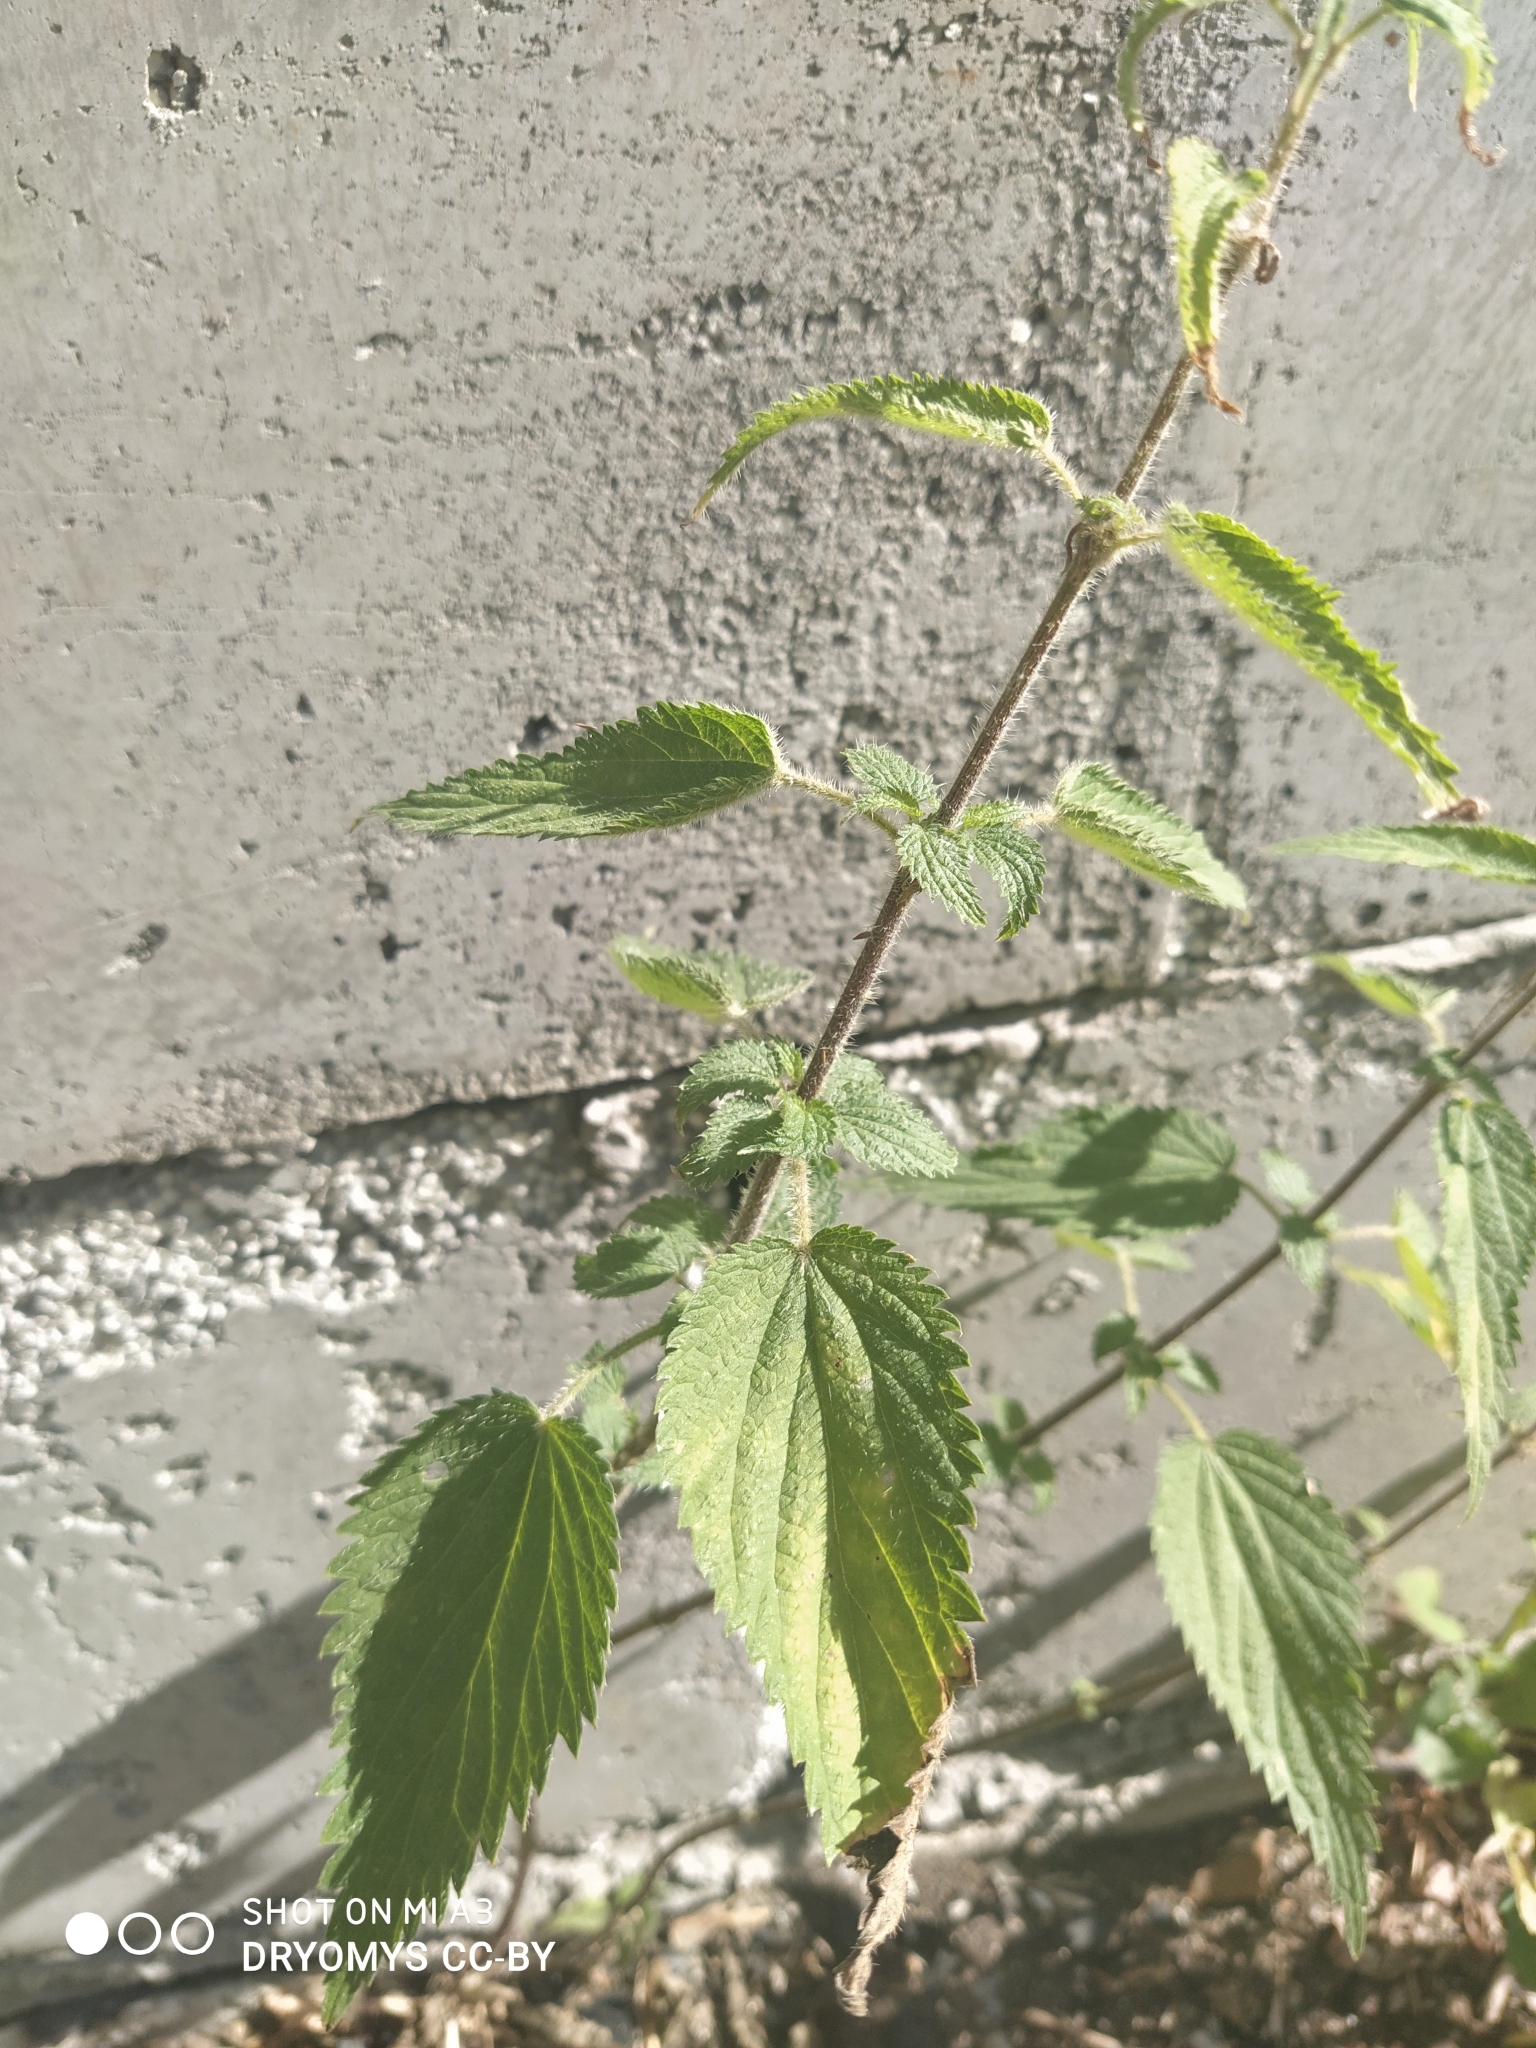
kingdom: Plantae
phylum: Tracheophyta
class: Magnoliopsida
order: Rosales
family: Urticaceae
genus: Urtica
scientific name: Urtica dioica
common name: Common nettle
